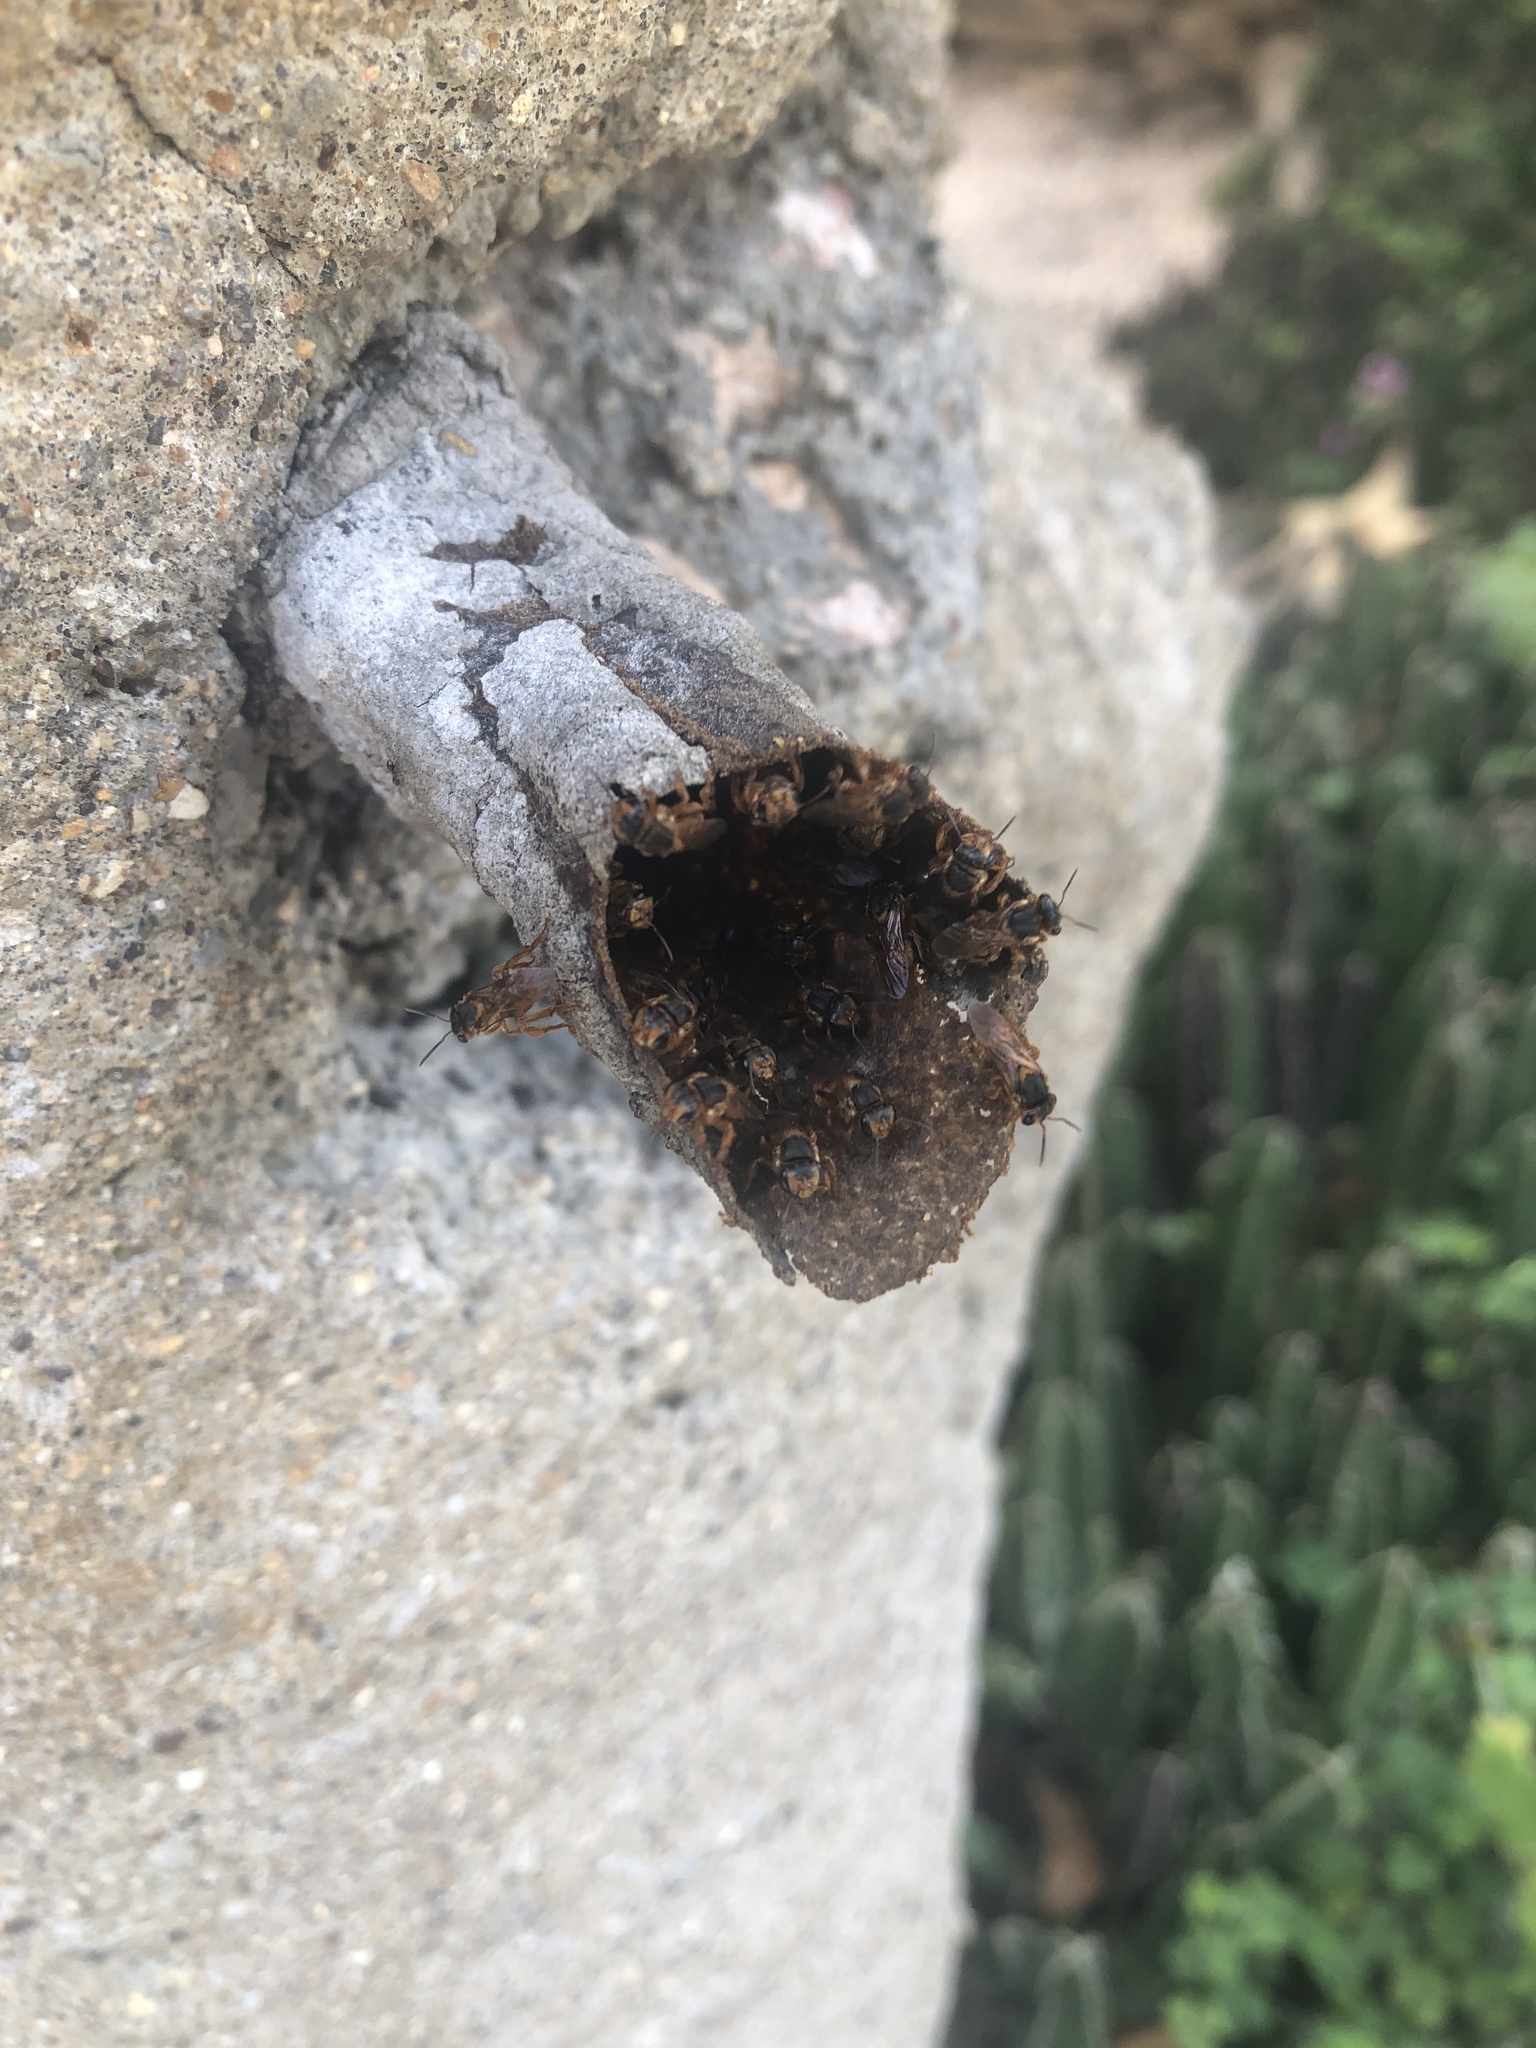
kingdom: Animalia
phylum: Arthropoda
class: Insecta
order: Hymenoptera
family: Apidae
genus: Scaptotrigona
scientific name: Scaptotrigona pectoralis
